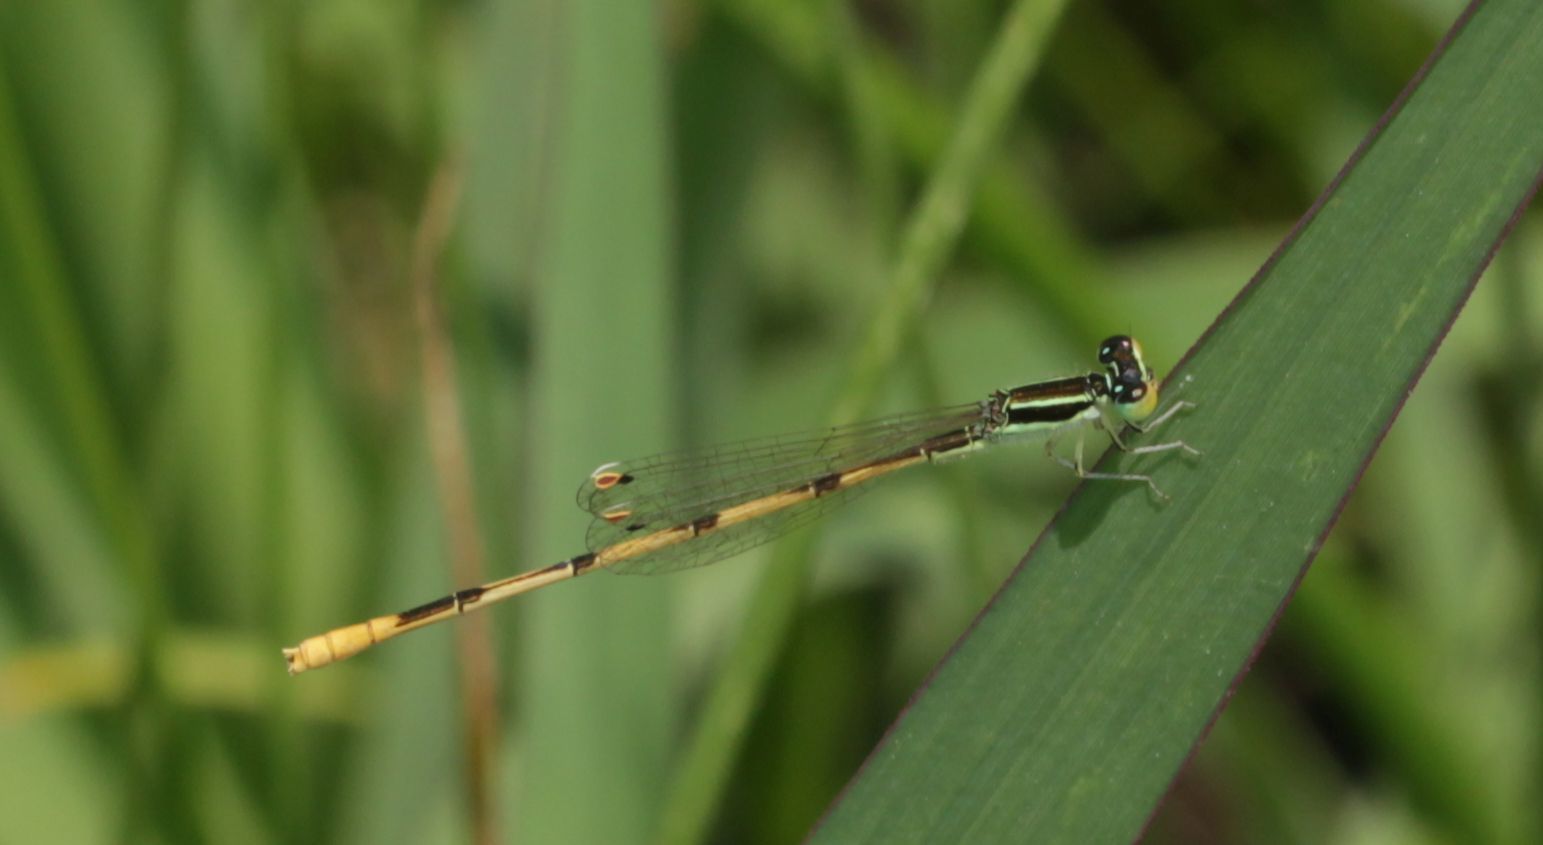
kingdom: Animalia
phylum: Arthropoda
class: Insecta
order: Odonata
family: Coenagrionidae
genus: Ischnura
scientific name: Ischnura hastata
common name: Citrine forktail
